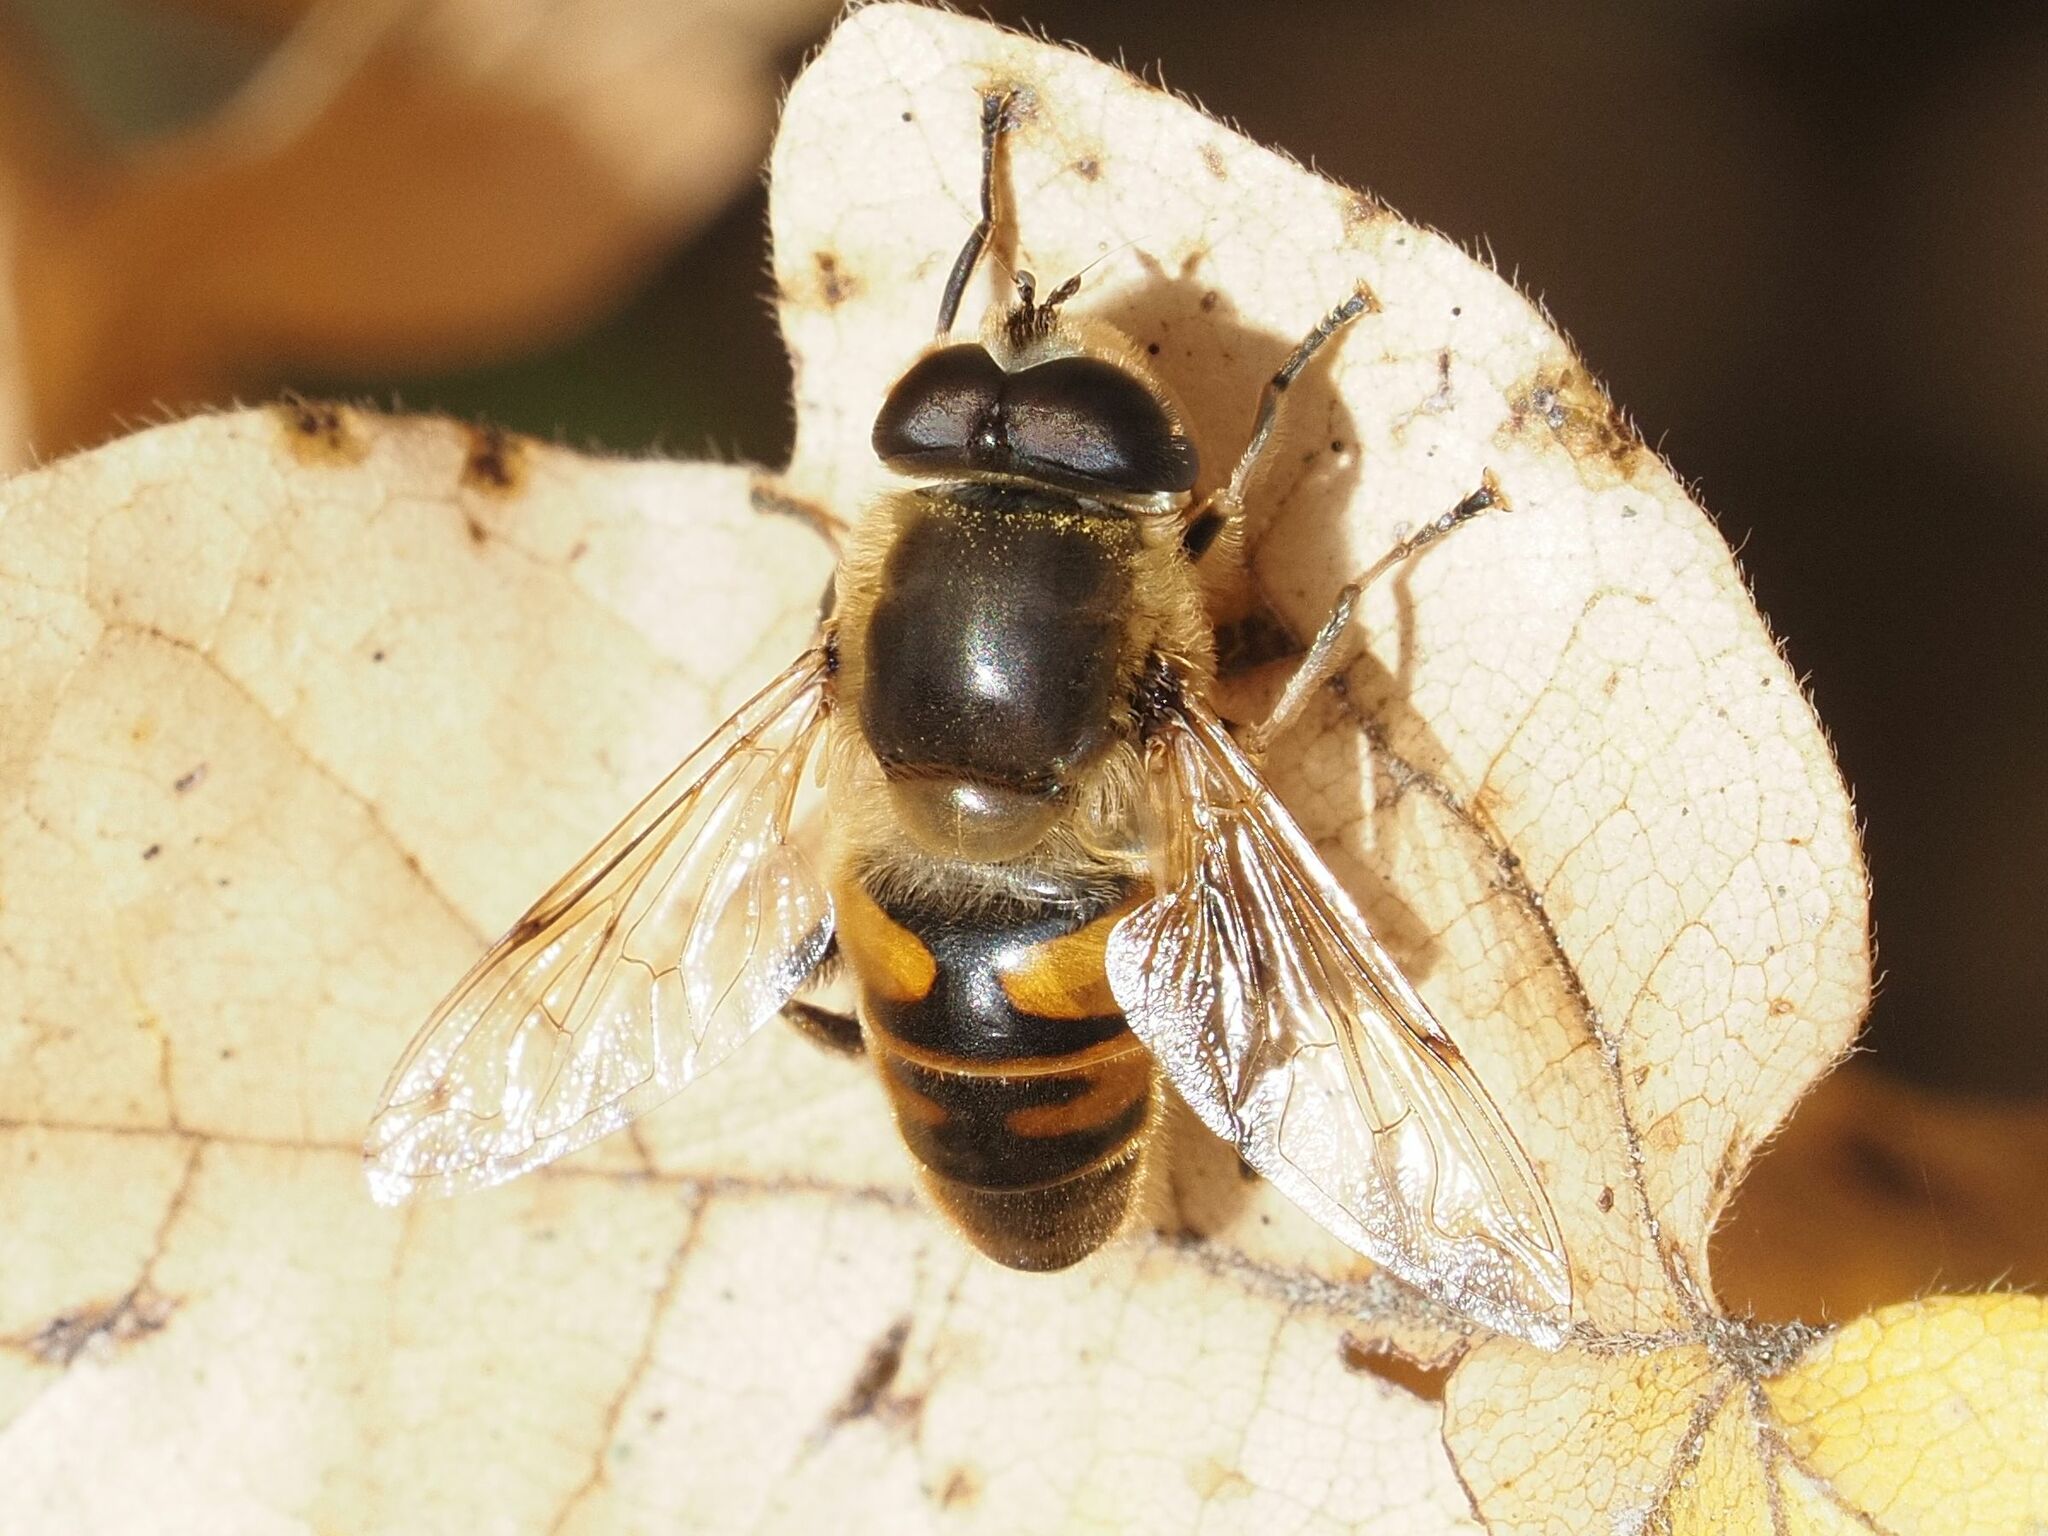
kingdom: Animalia
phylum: Arthropoda
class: Insecta
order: Diptera
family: Syrphidae
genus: Eristalis
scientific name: Eristalis tenax
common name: Drone fly
